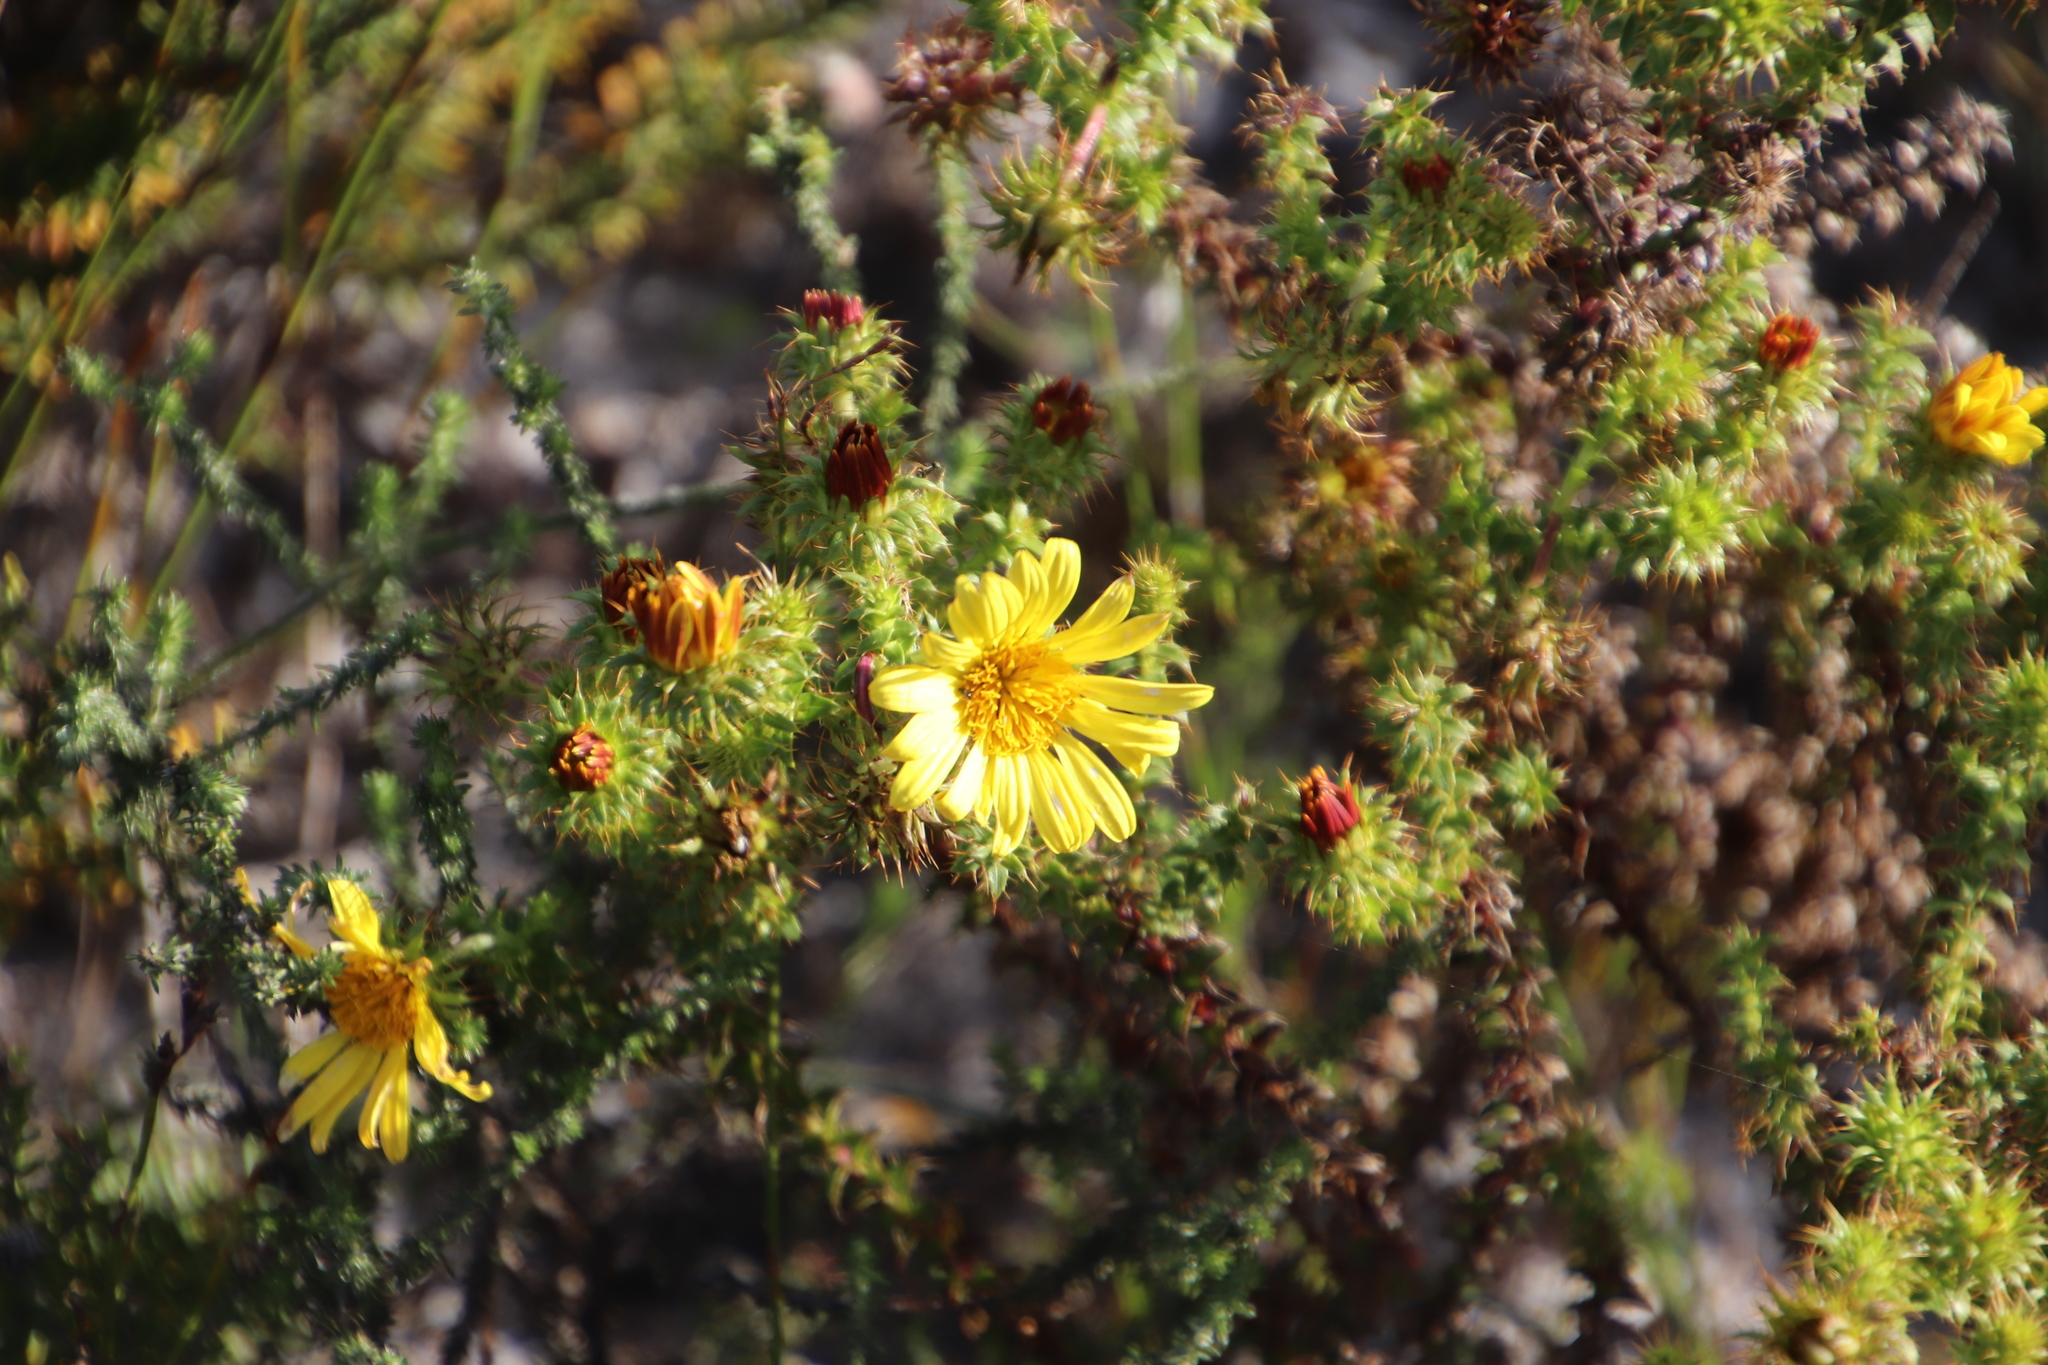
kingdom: Plantae
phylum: Tracheophyta
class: Magnoliopsida
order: Asterales
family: Asteraceae
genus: Cullumia
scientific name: Cullumia setosa
